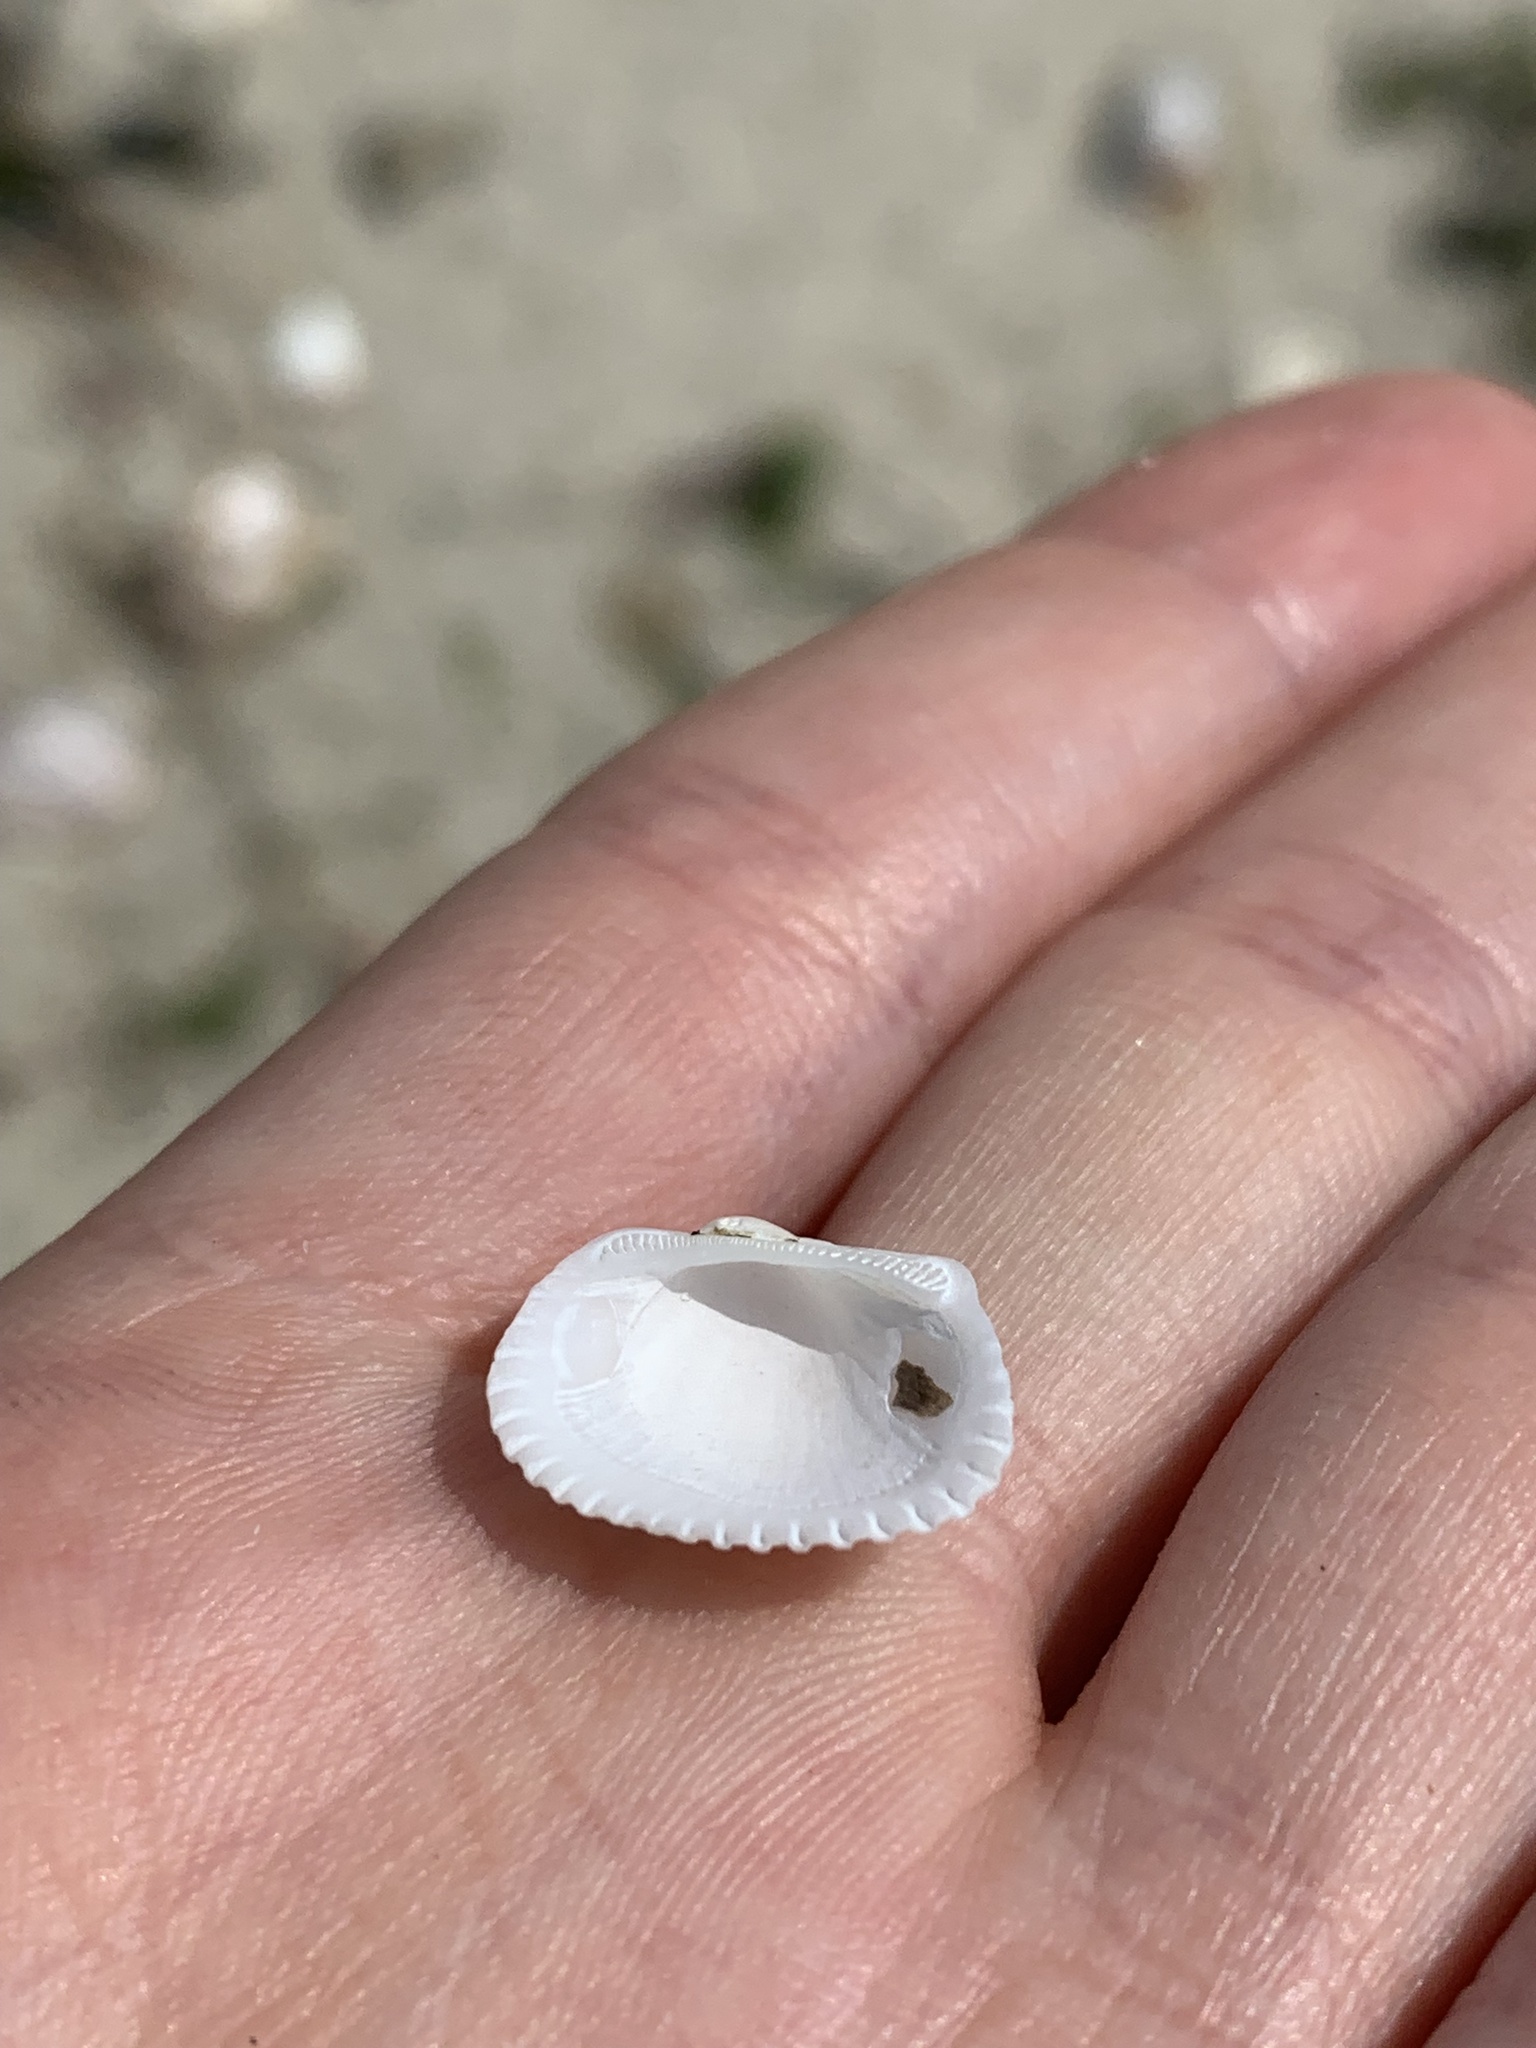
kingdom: Animalia
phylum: Mollusca
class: Bivalvia
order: Arcida
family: Arcidae
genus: Anadara
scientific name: Anadara transversa
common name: Transverse ark
